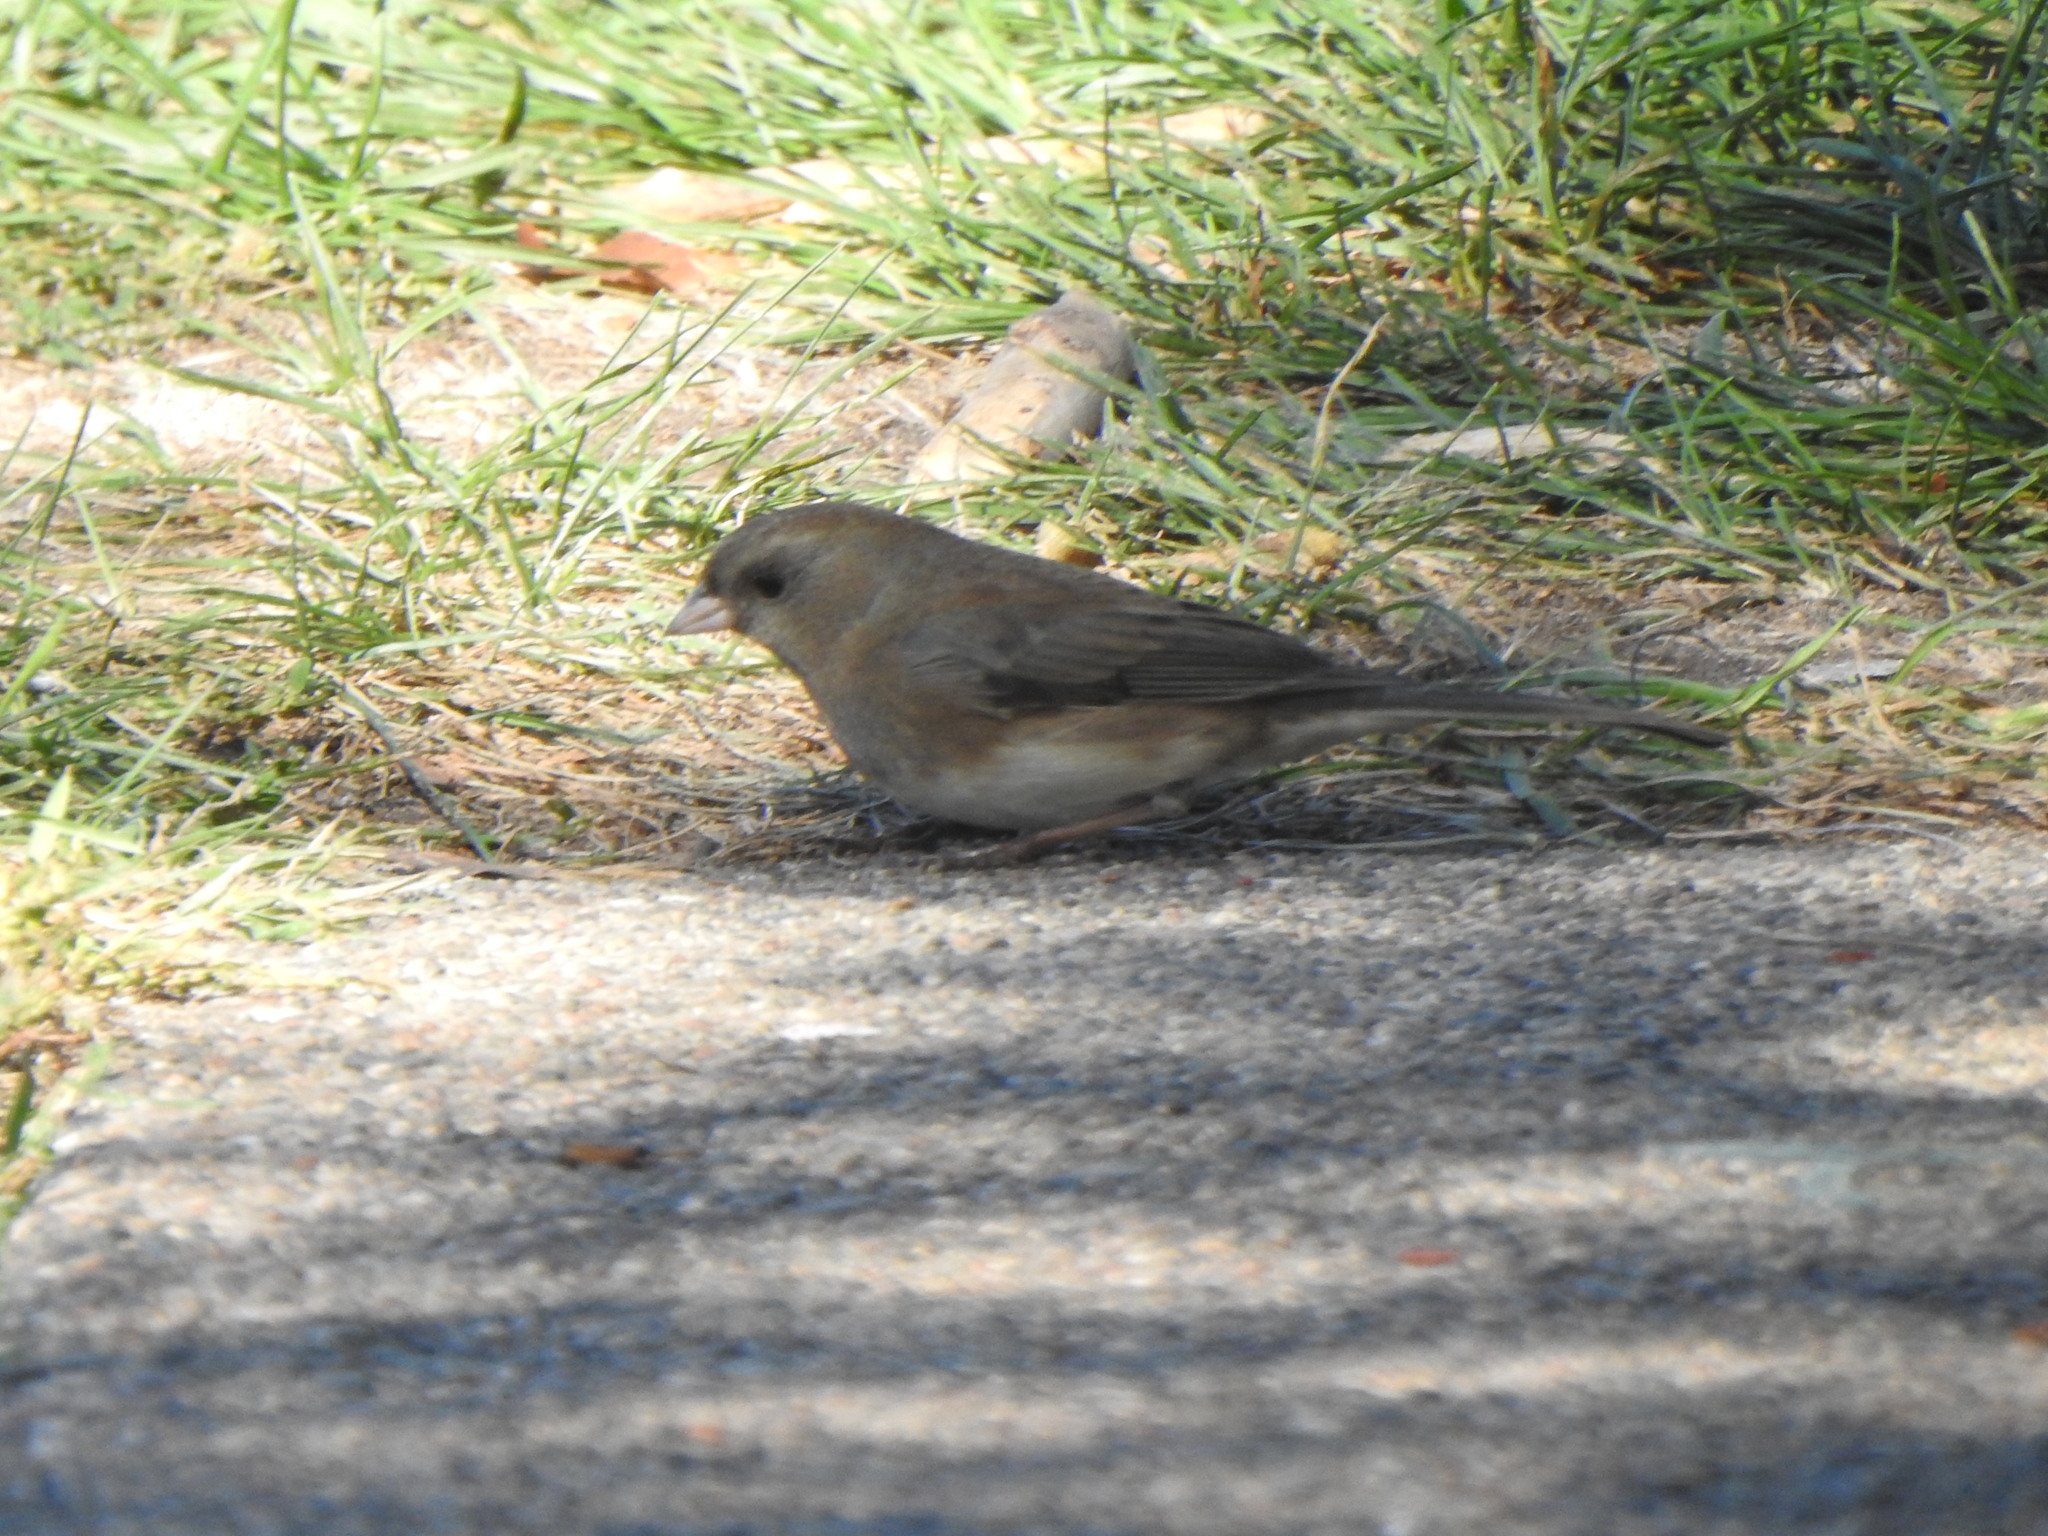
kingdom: Animalia
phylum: Chordata
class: Aves
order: Passeriformes
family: Passerellidae
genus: Junco
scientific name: Junco hyemalis
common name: Dark-eyed junco
